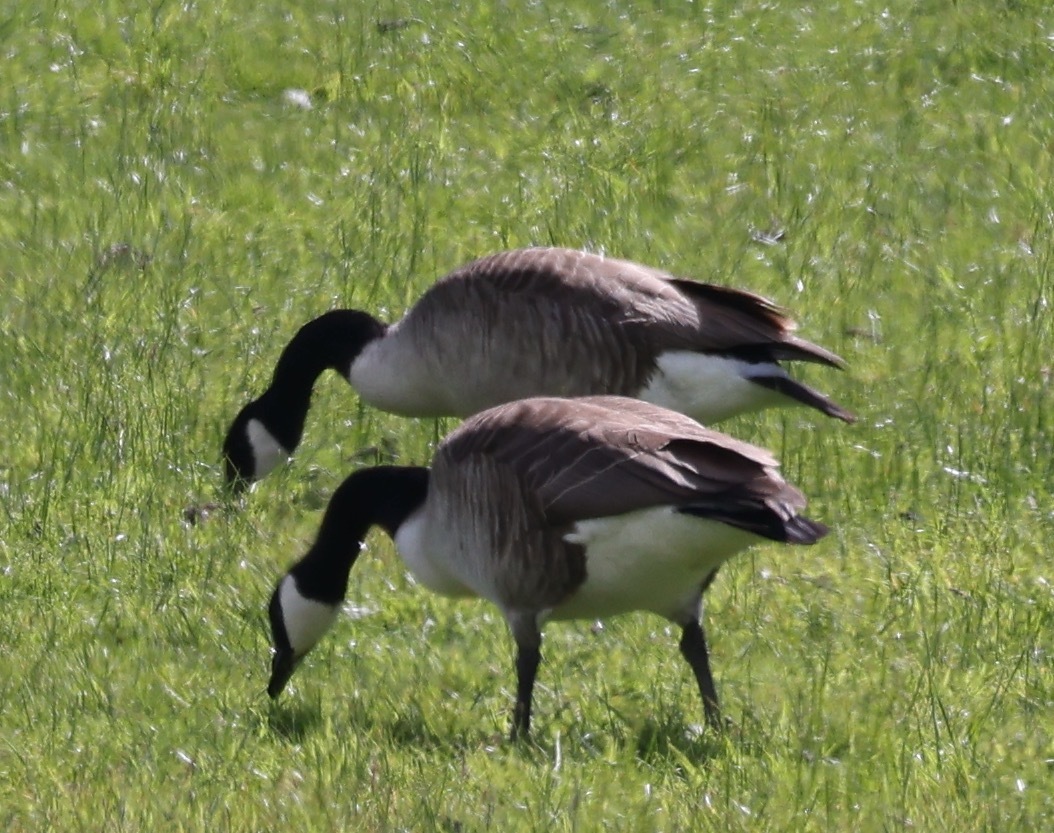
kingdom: Animalia
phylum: Chordata
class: Aves
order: Anseriformes
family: Anatidae
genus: Branta
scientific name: Branta canadensis
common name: Canada goose
